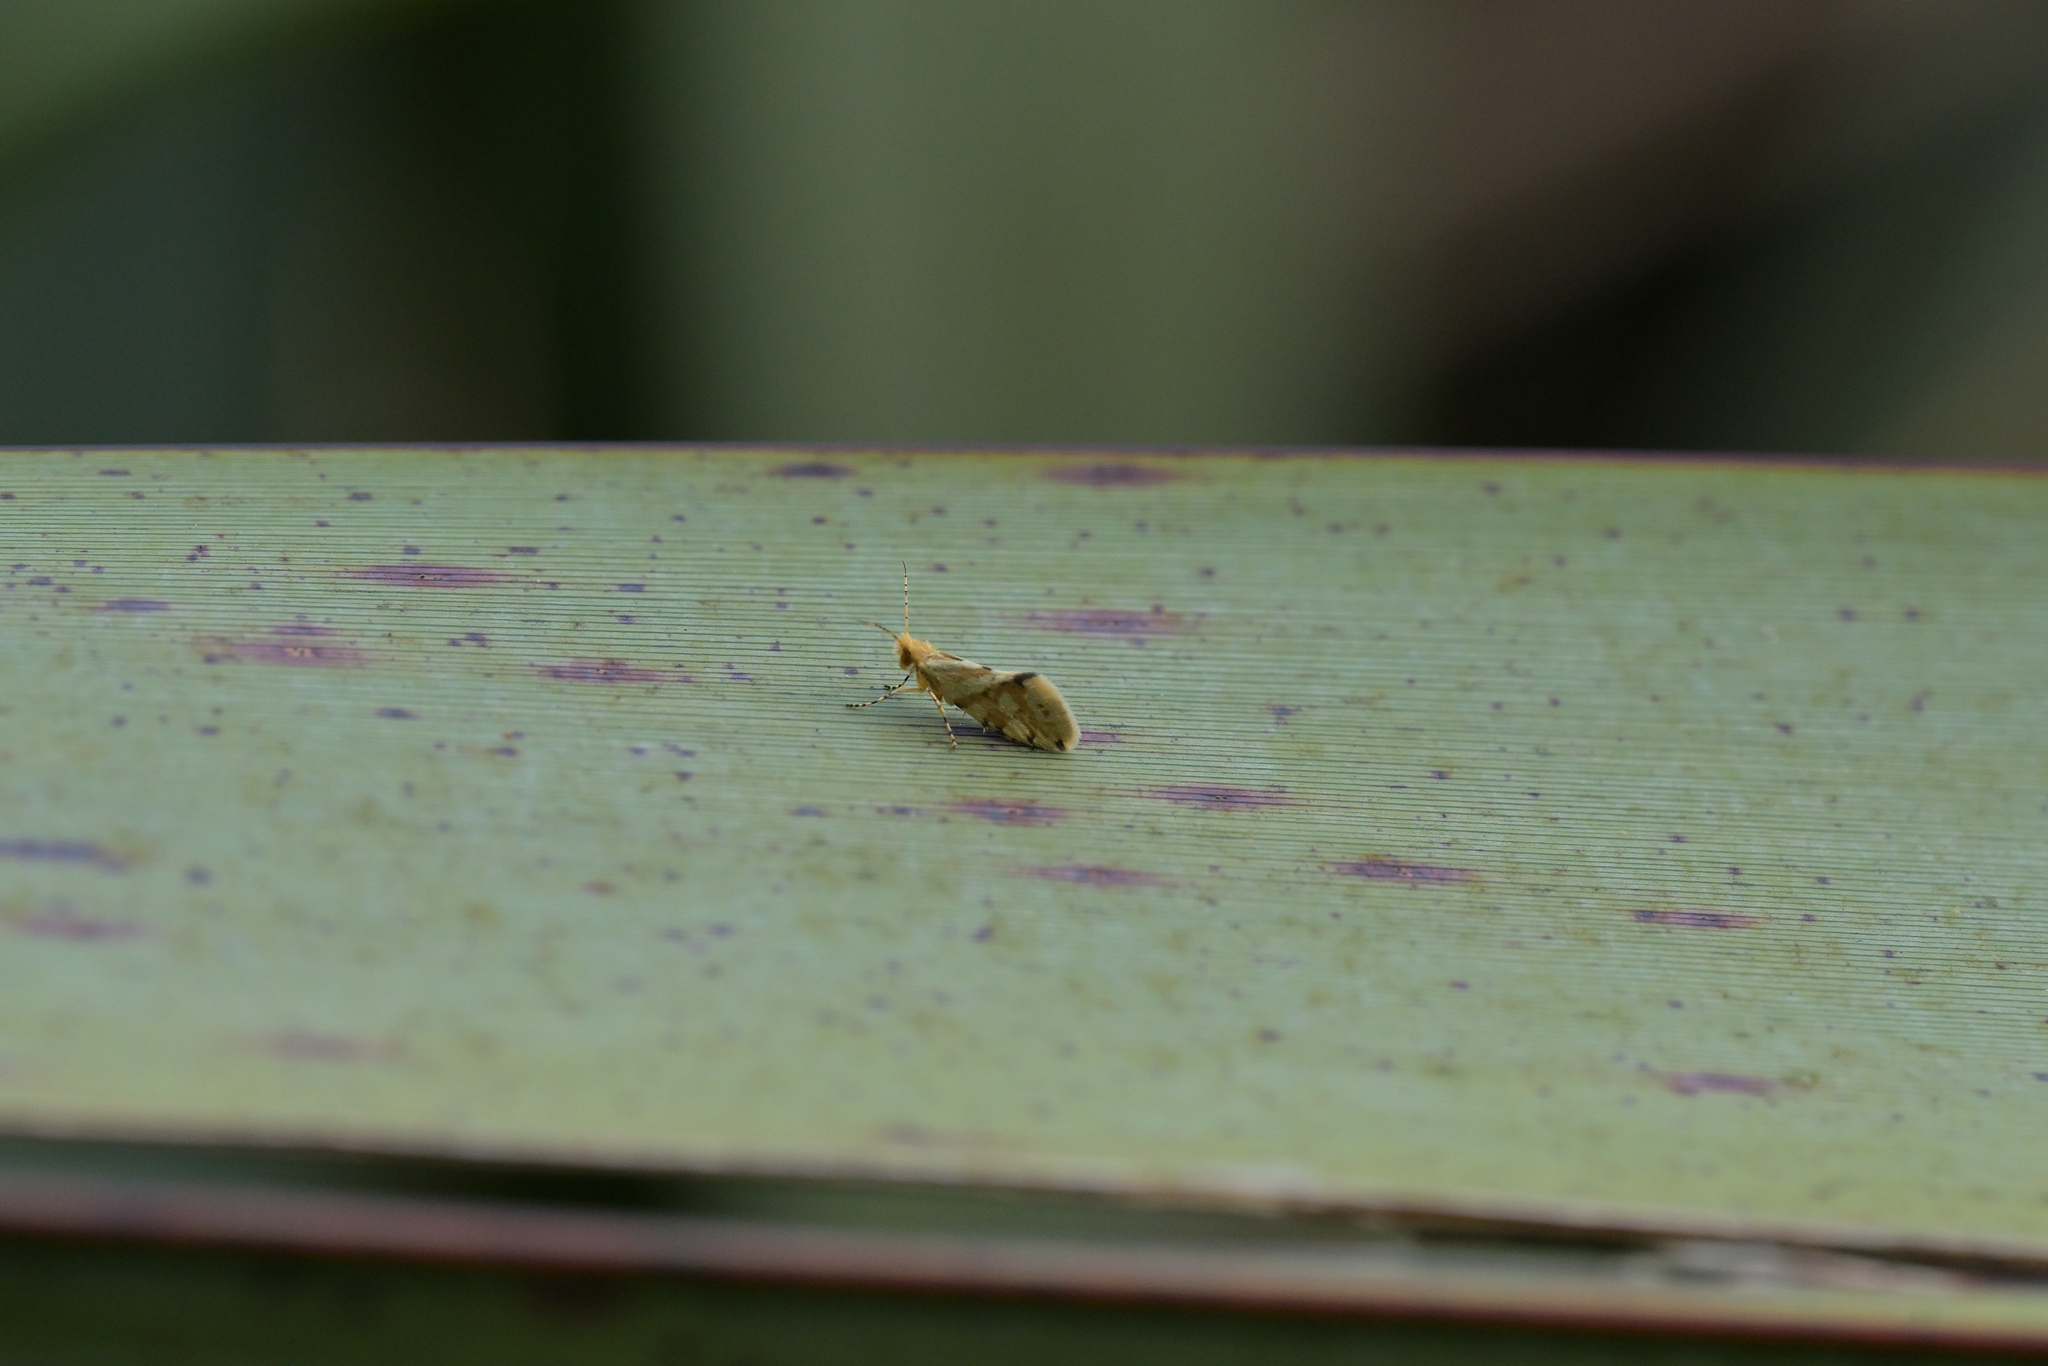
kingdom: Animalia
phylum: Arthropoda
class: Insecta
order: Lepidoptera
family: Micropterigidae
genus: Sabatinca
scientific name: Sabatinca chalcophanes
